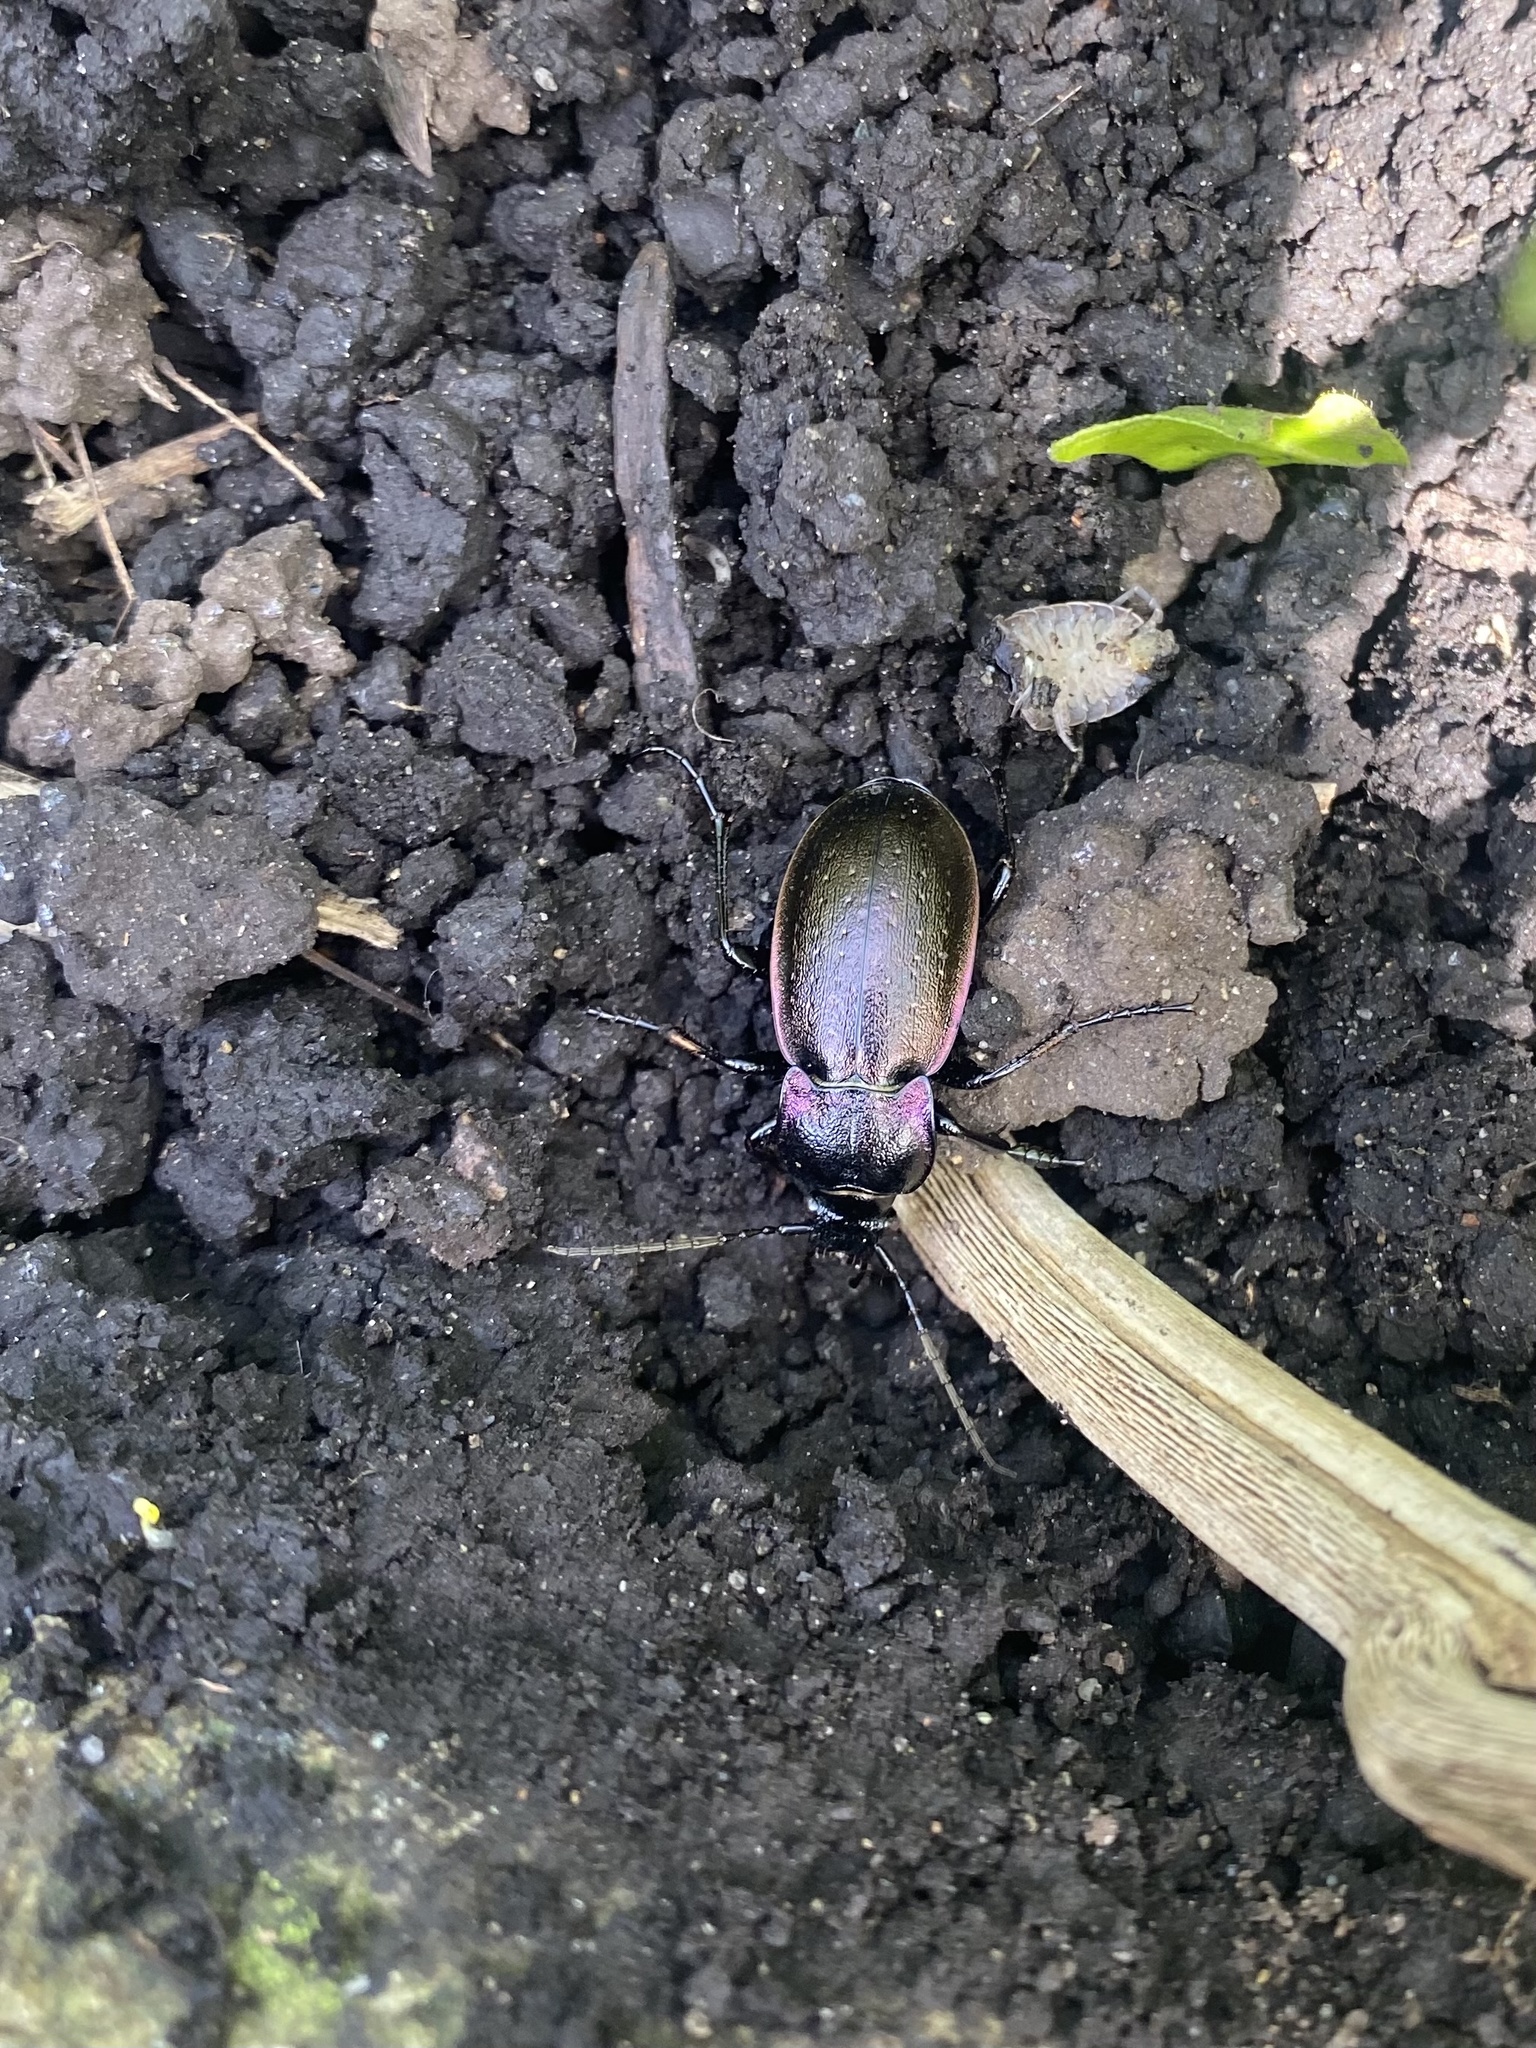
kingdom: Animalia
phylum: Arthropoda
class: Insecta
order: Coleoptera
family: Carabidae
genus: Carabus
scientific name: Carabus nemoralis
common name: European ground beetle
